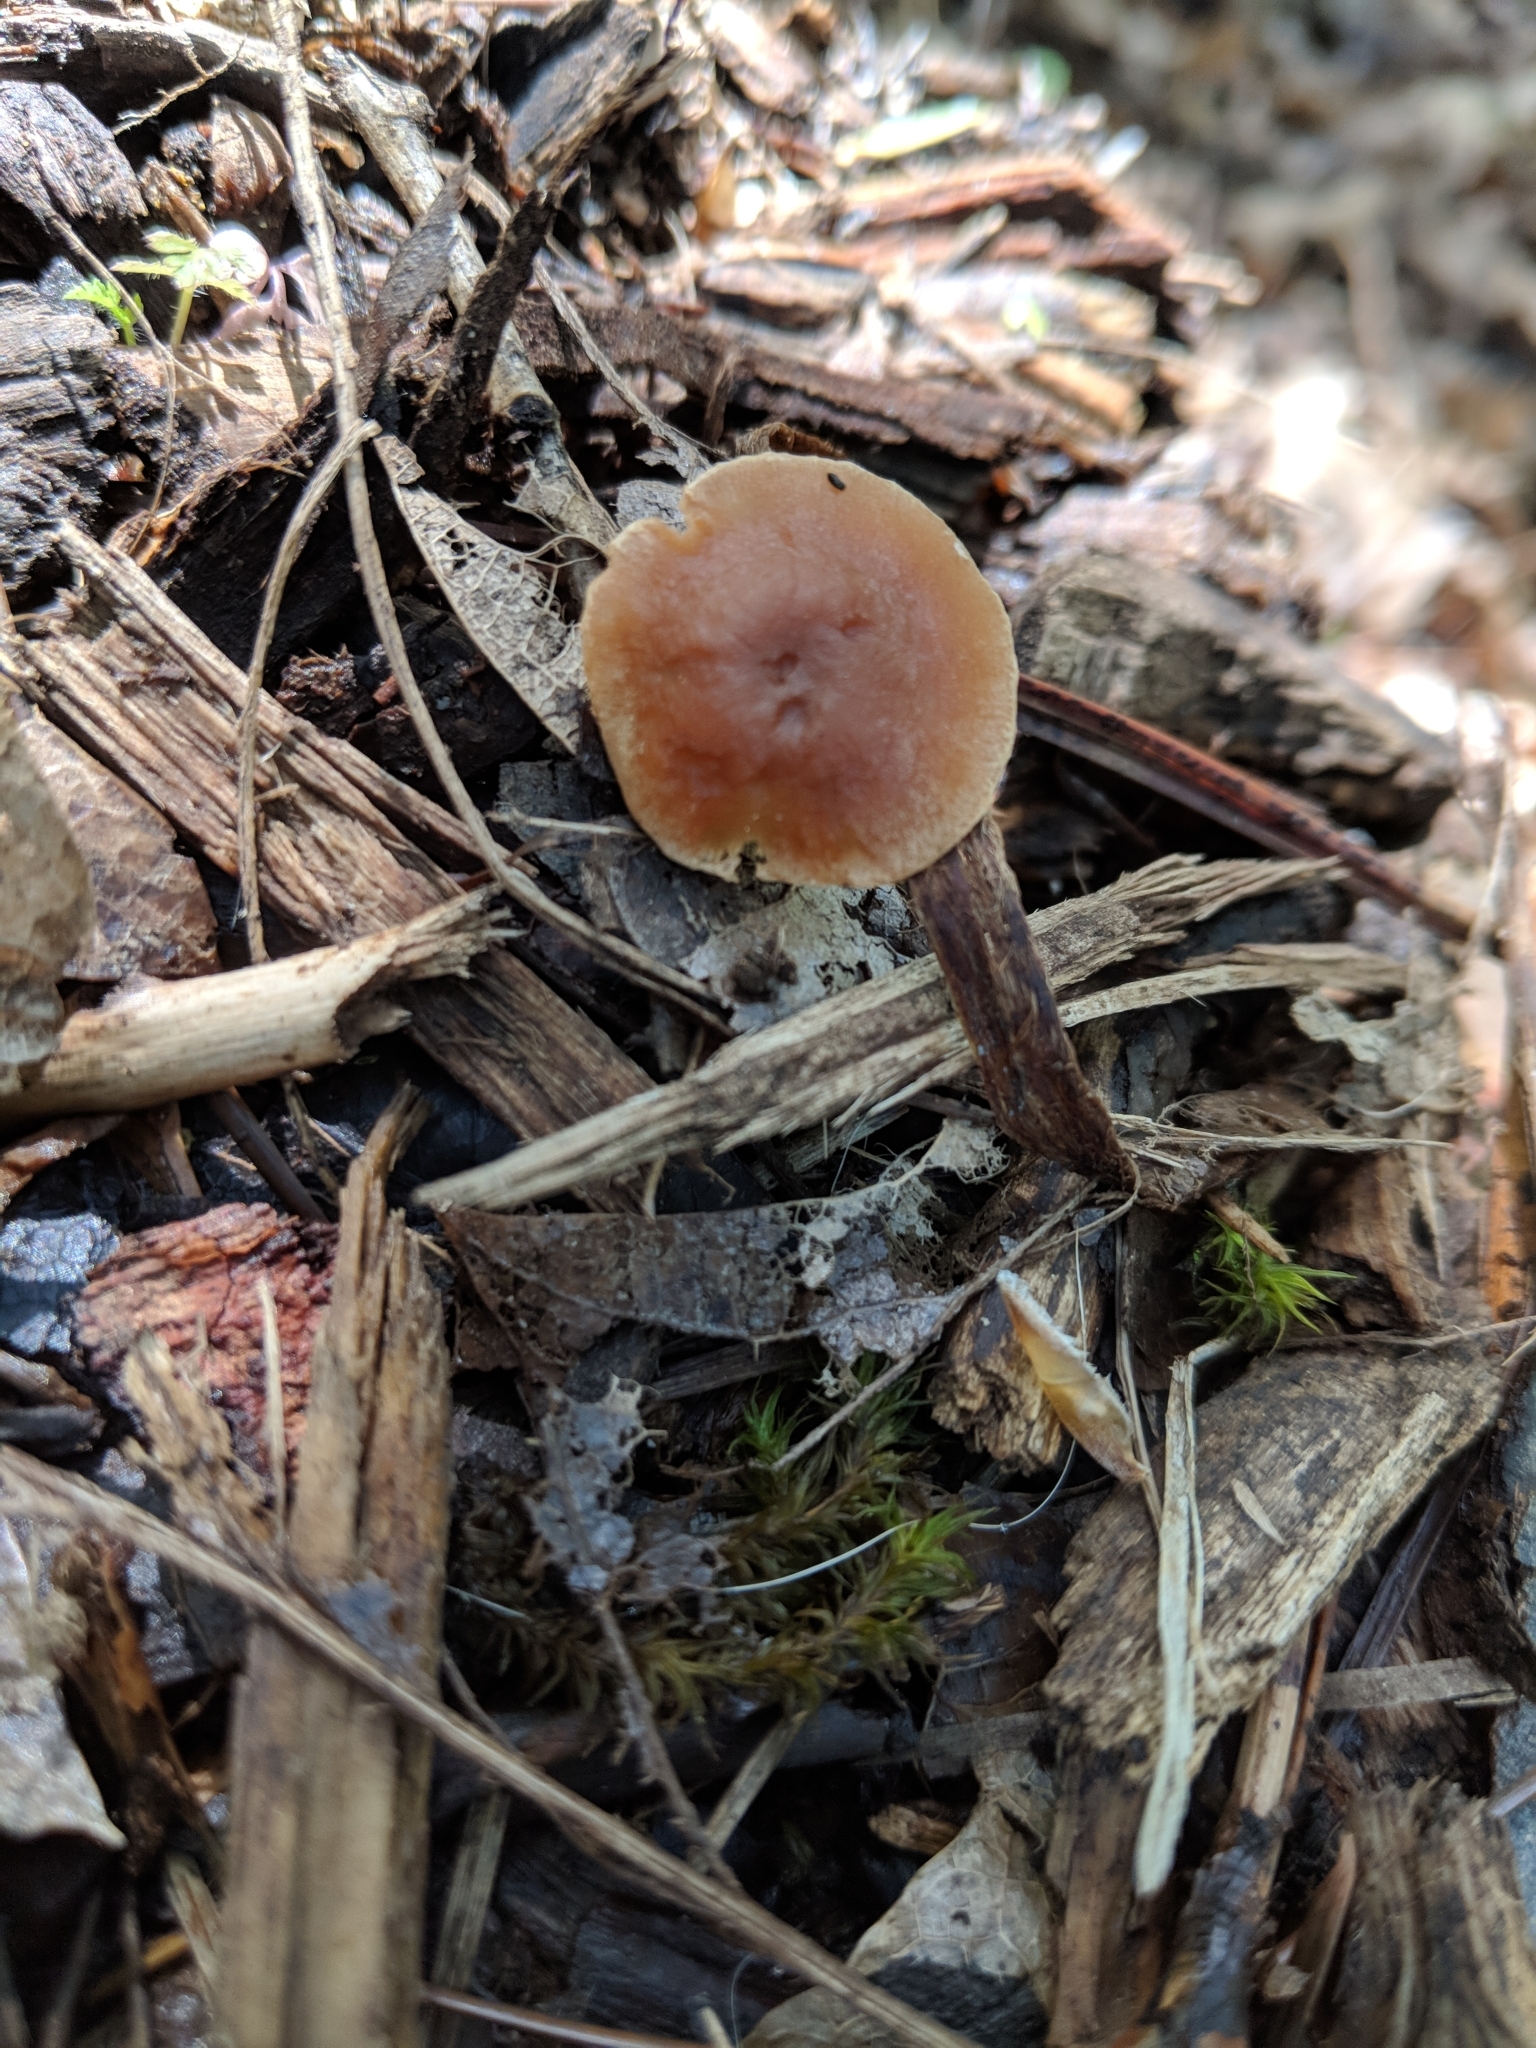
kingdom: Fungi
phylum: Basidiomycota
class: Agaricomycetes
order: Agaricales
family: Tubariaceae
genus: Tubaria
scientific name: Tubaria furfuracea
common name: Scurfy twiglet
